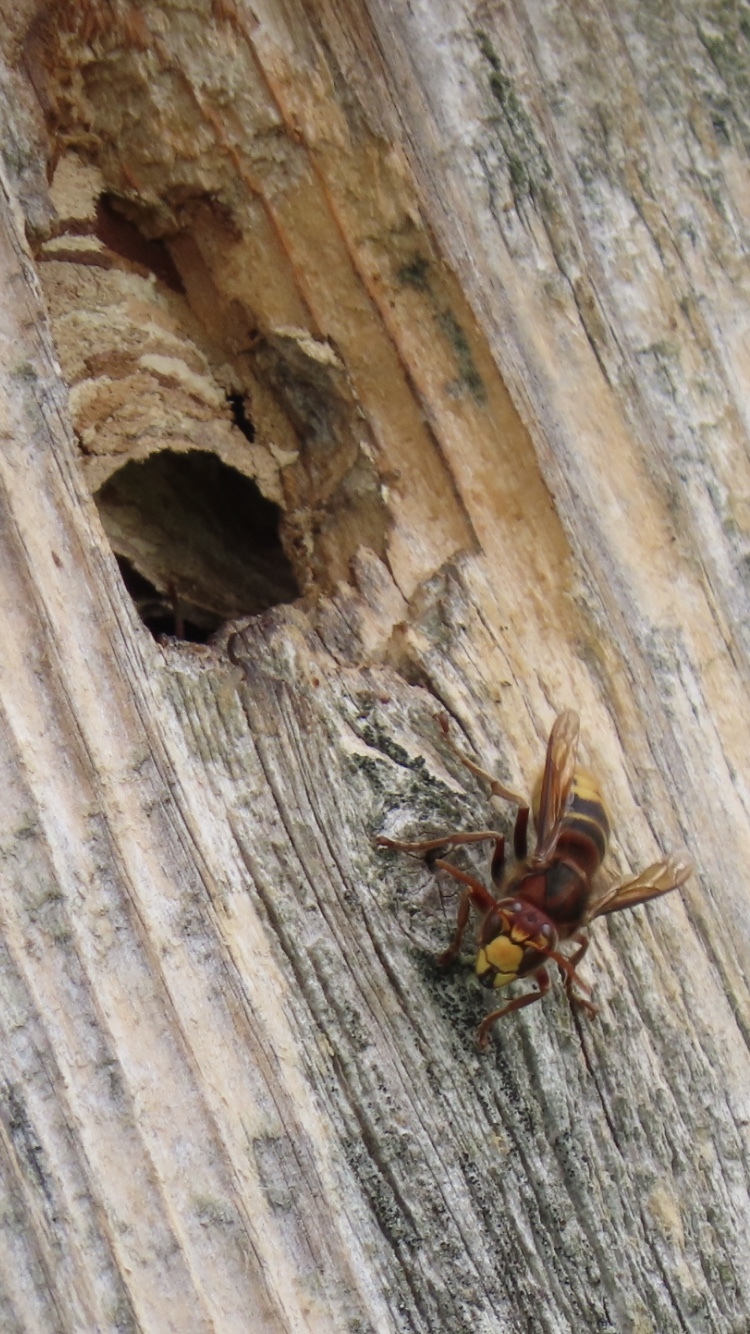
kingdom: Animalia
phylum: Arthropoda
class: Insecta
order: Hymenoptera
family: Vespidae
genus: Vespa
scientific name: Vespa crabro
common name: Hornet
